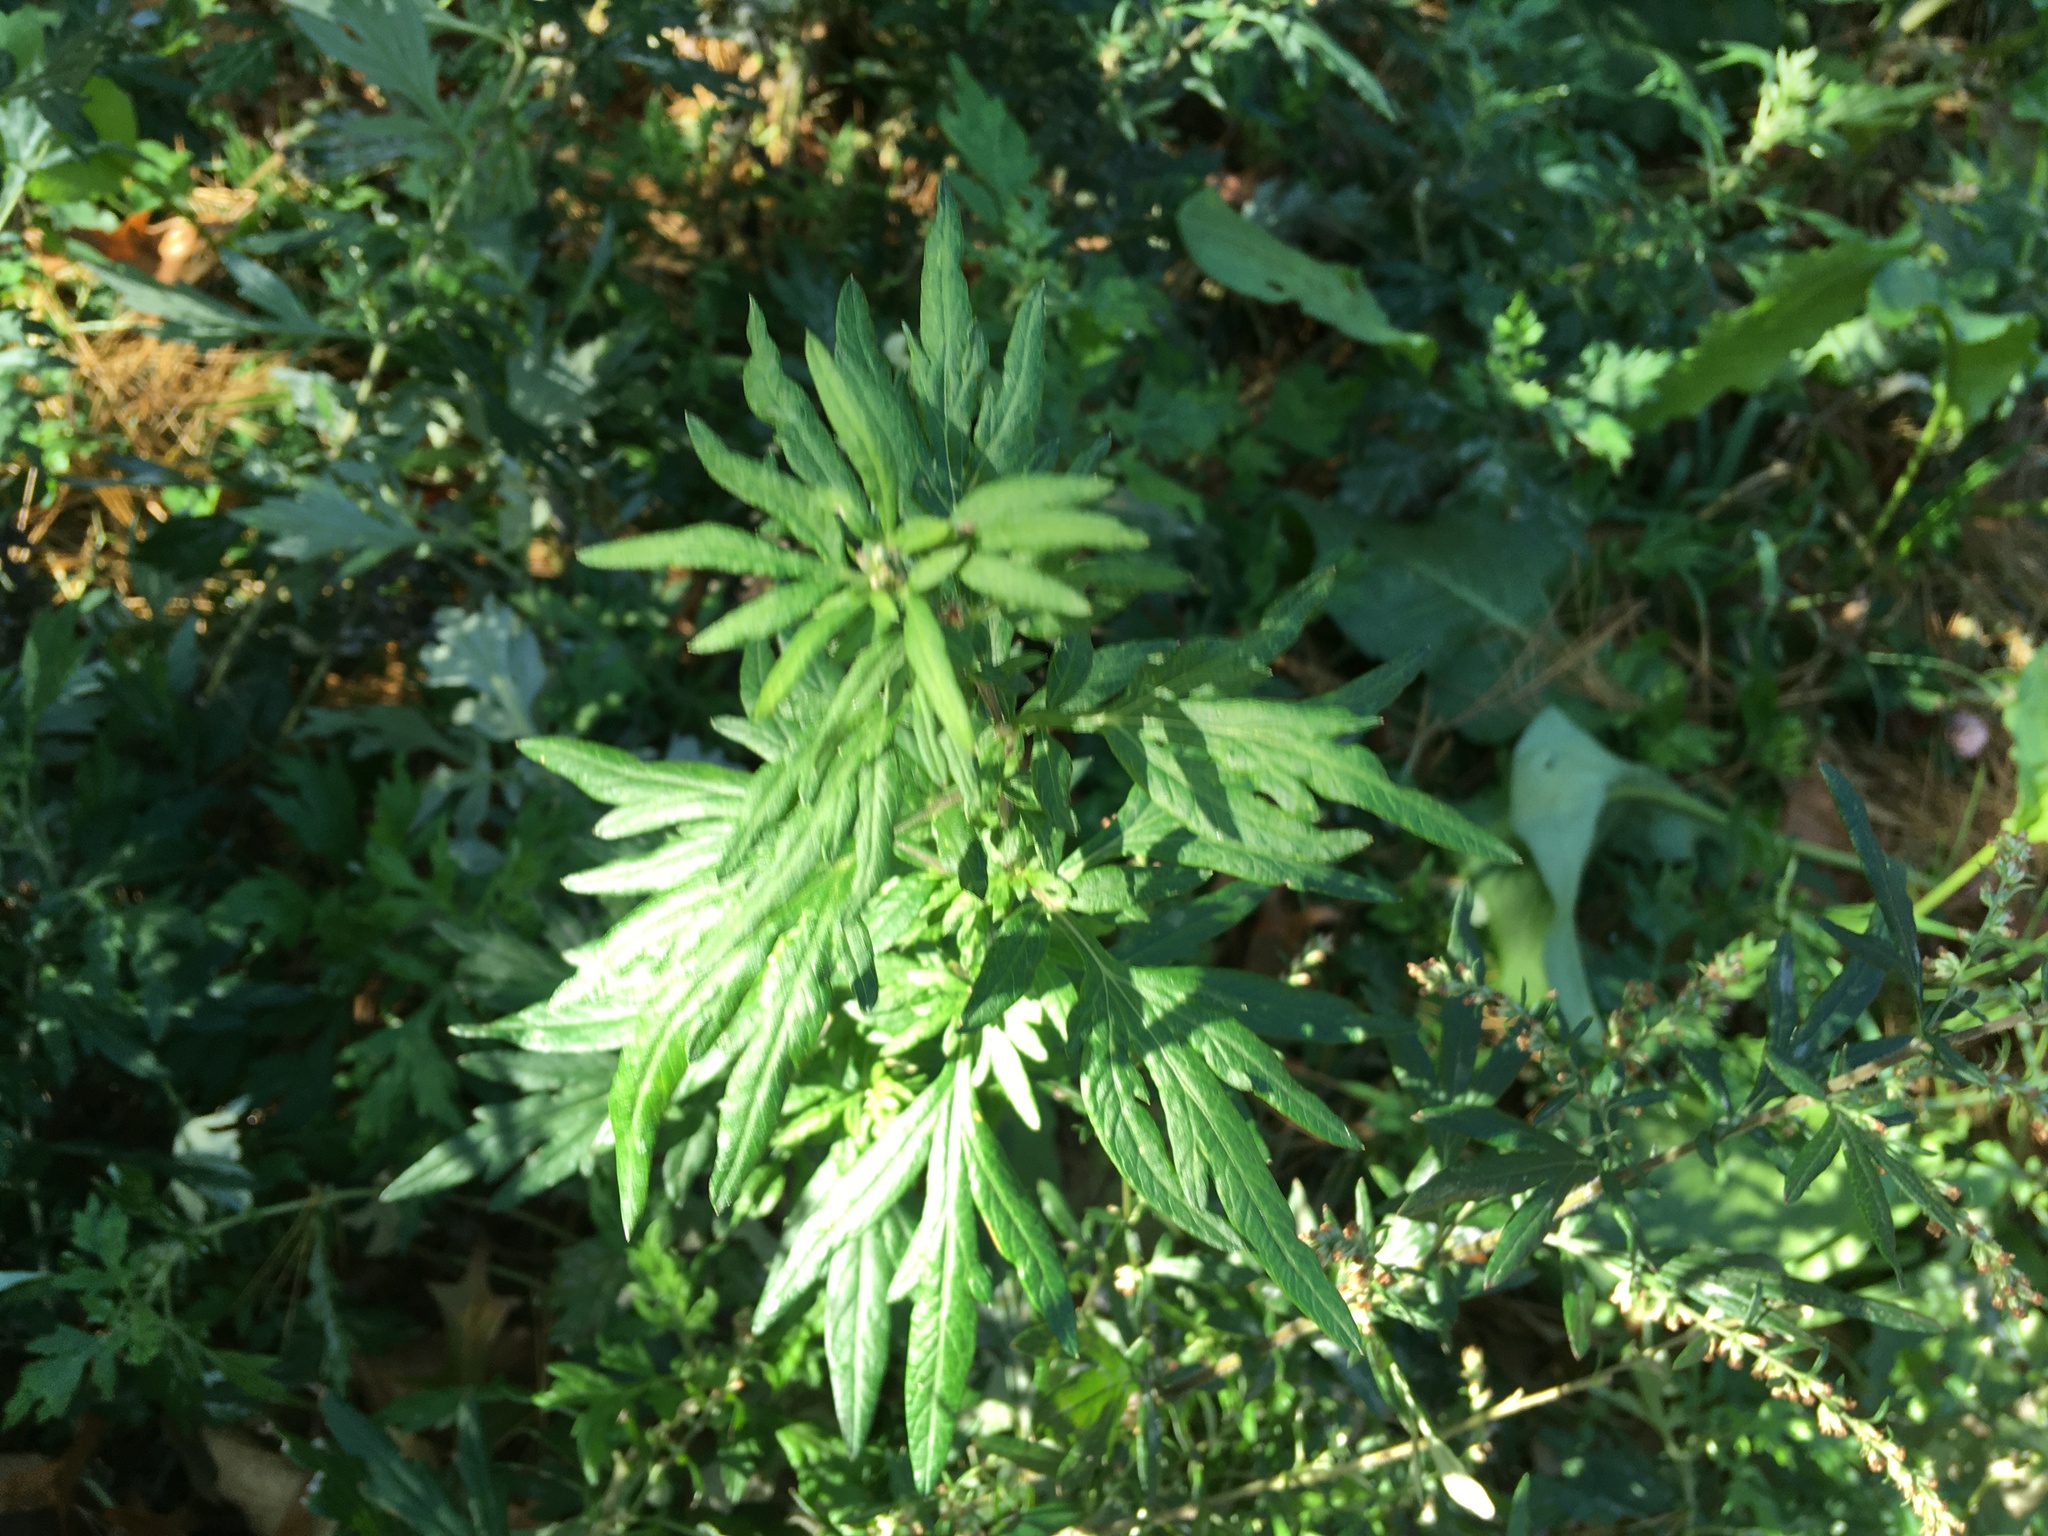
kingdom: Plantae
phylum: Tracheophyta
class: Magnoliopsida
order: Asterales
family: Asteraceae
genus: Artemisia
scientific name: Artemisia vulgaris
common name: Mugwort
